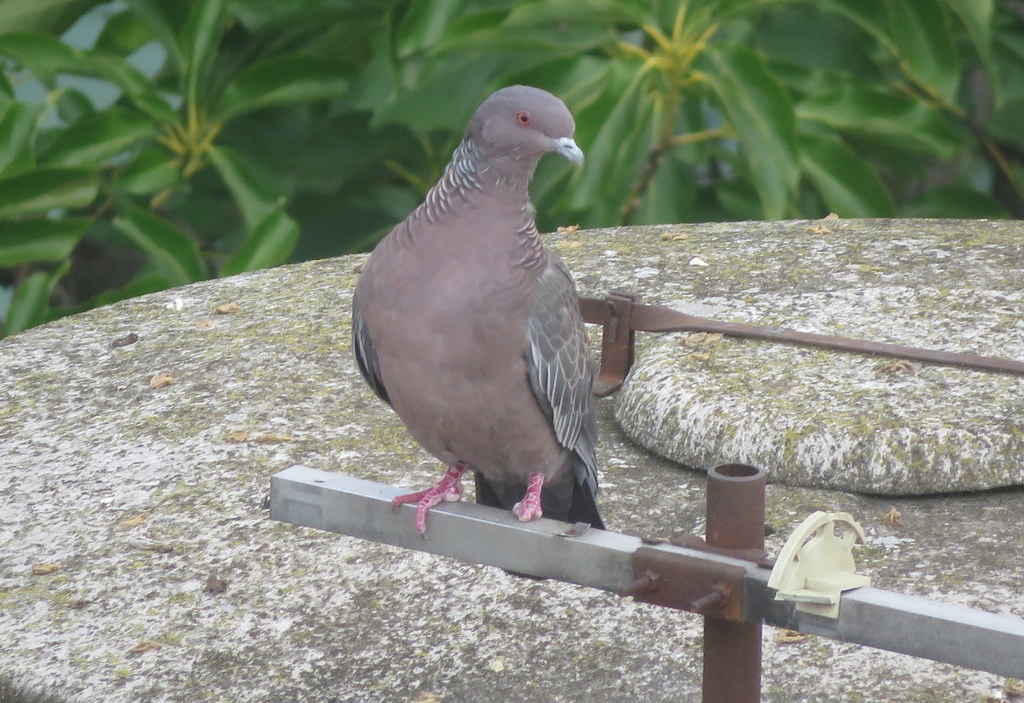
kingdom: Animalia
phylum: Chordata
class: Aves
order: Columbiformes
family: Columbidae
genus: Patagioenas
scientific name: Patagioenas picazuro
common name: Picazuro pigeon
